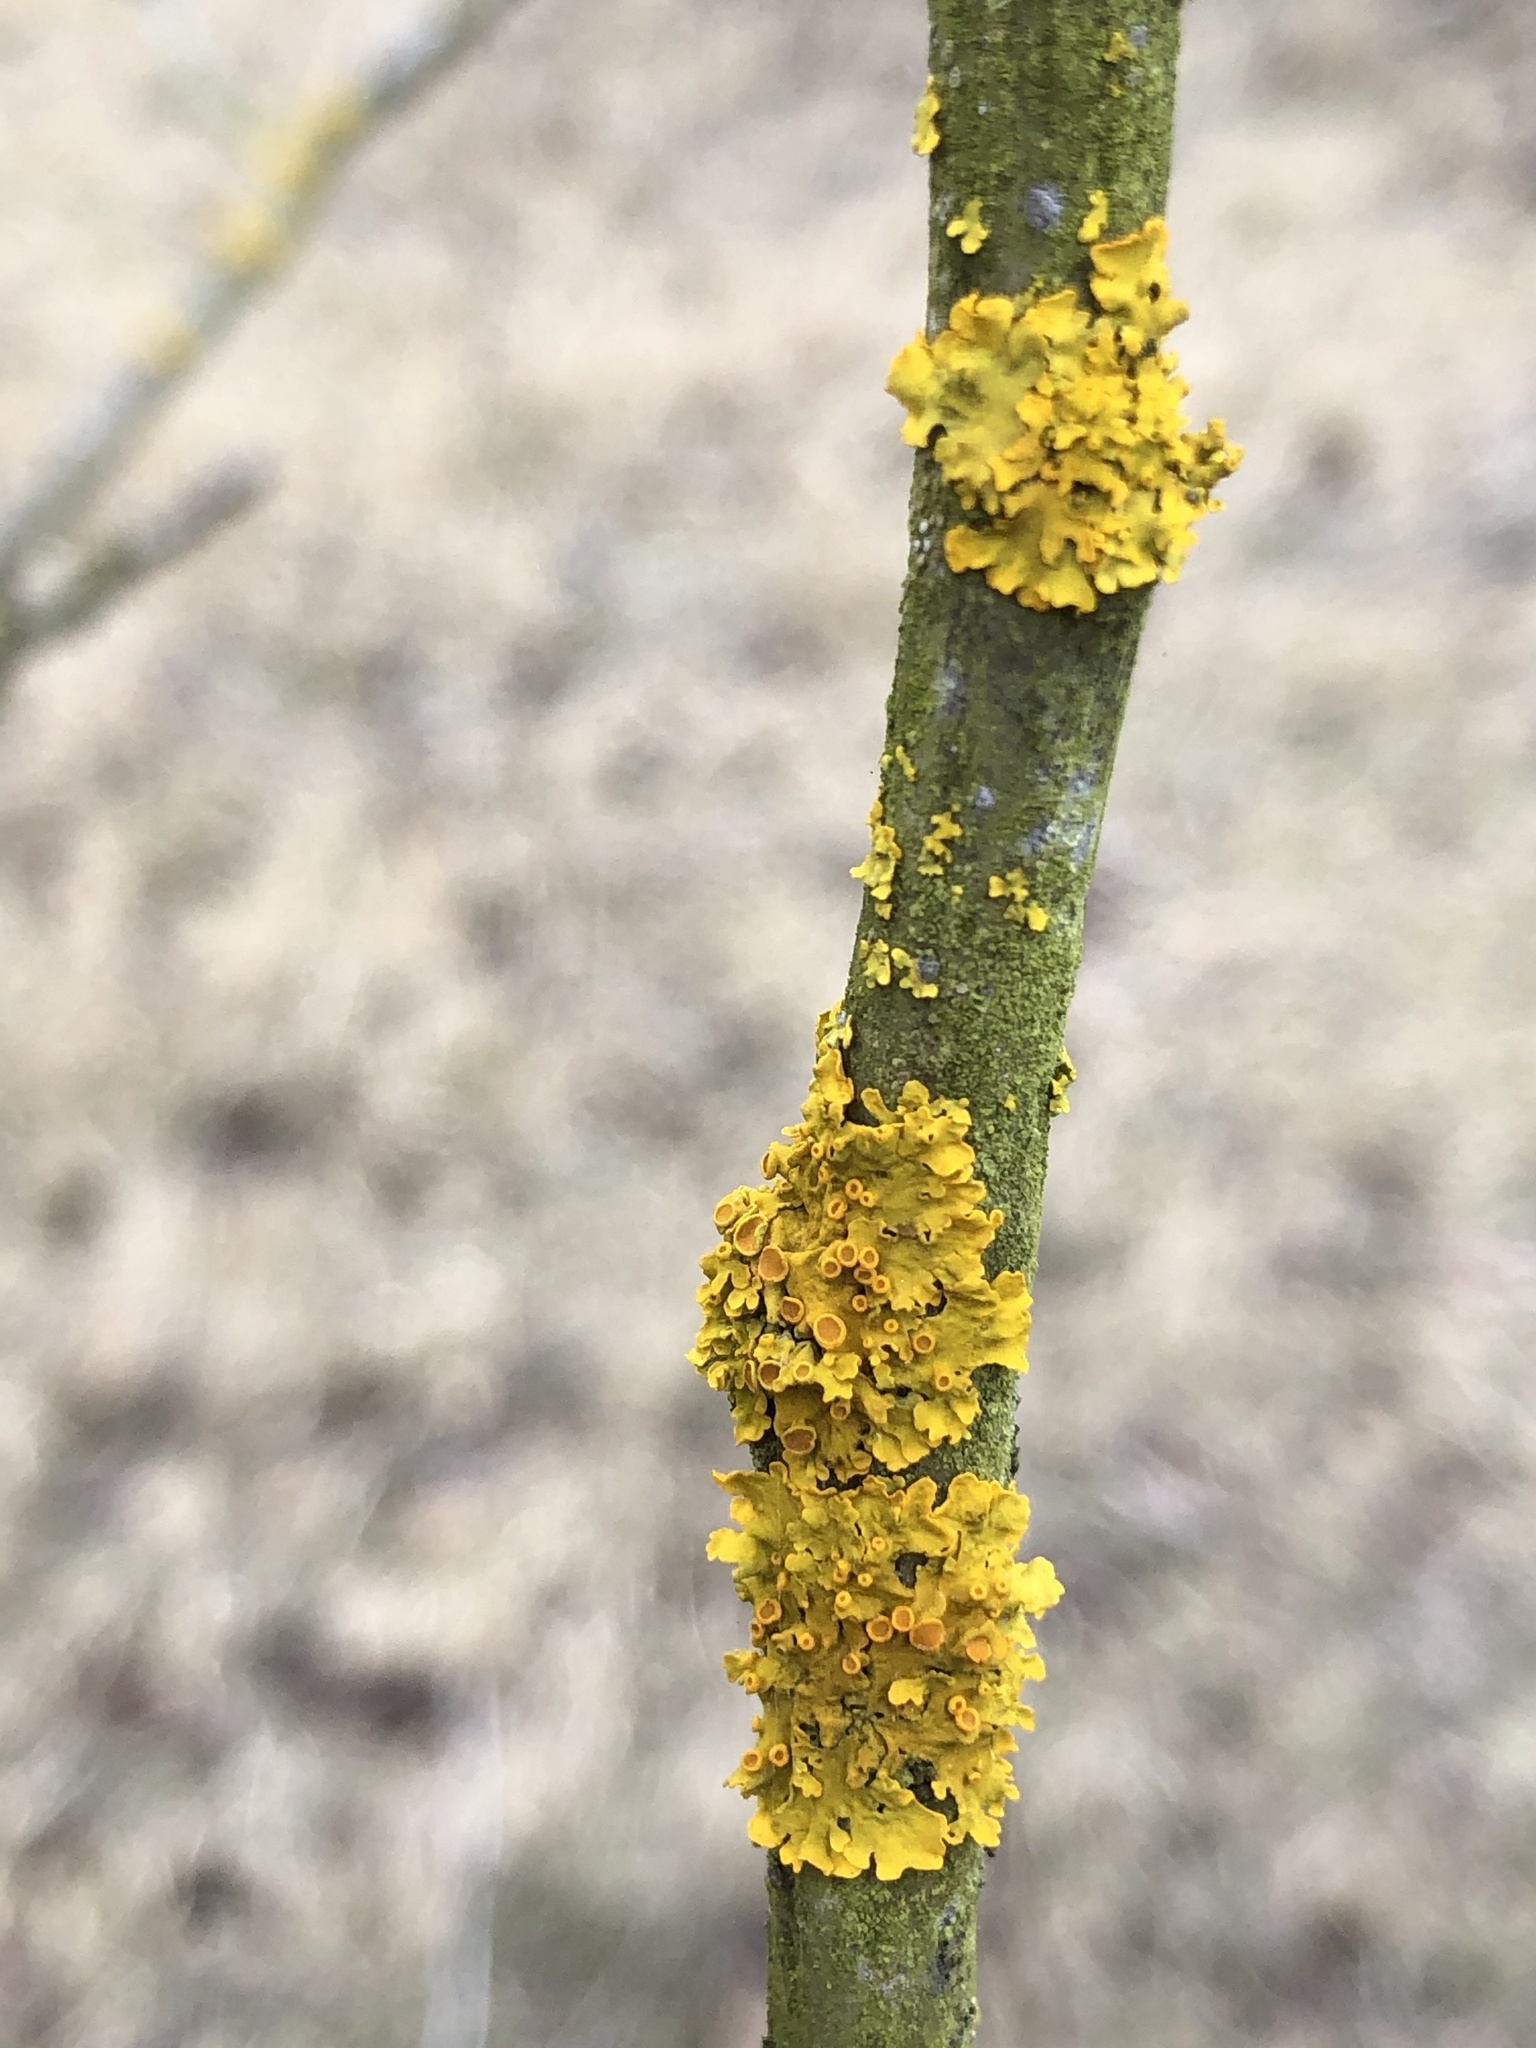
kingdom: Fungi
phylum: Ascomycota
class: Lecanoromycetes
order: Teloschistales
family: Teloschistaceae
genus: Xanthoria
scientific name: Xanthoria parietina
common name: Common orange lichen
